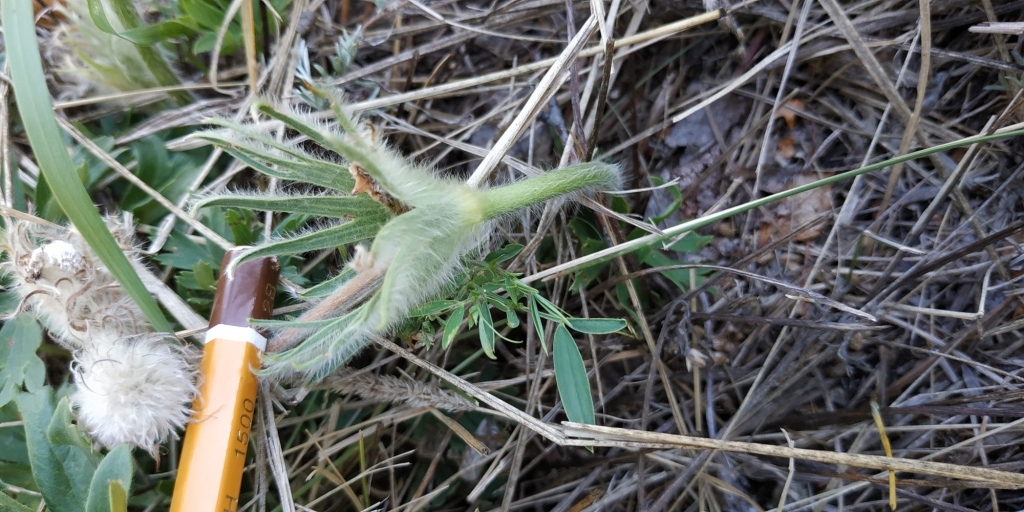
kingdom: Plantae
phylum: Tracheophyta
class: Magnoliopsida
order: Ranunculales
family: Ranunculaceae
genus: Pulsatilla
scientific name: Pulsatilla patens
